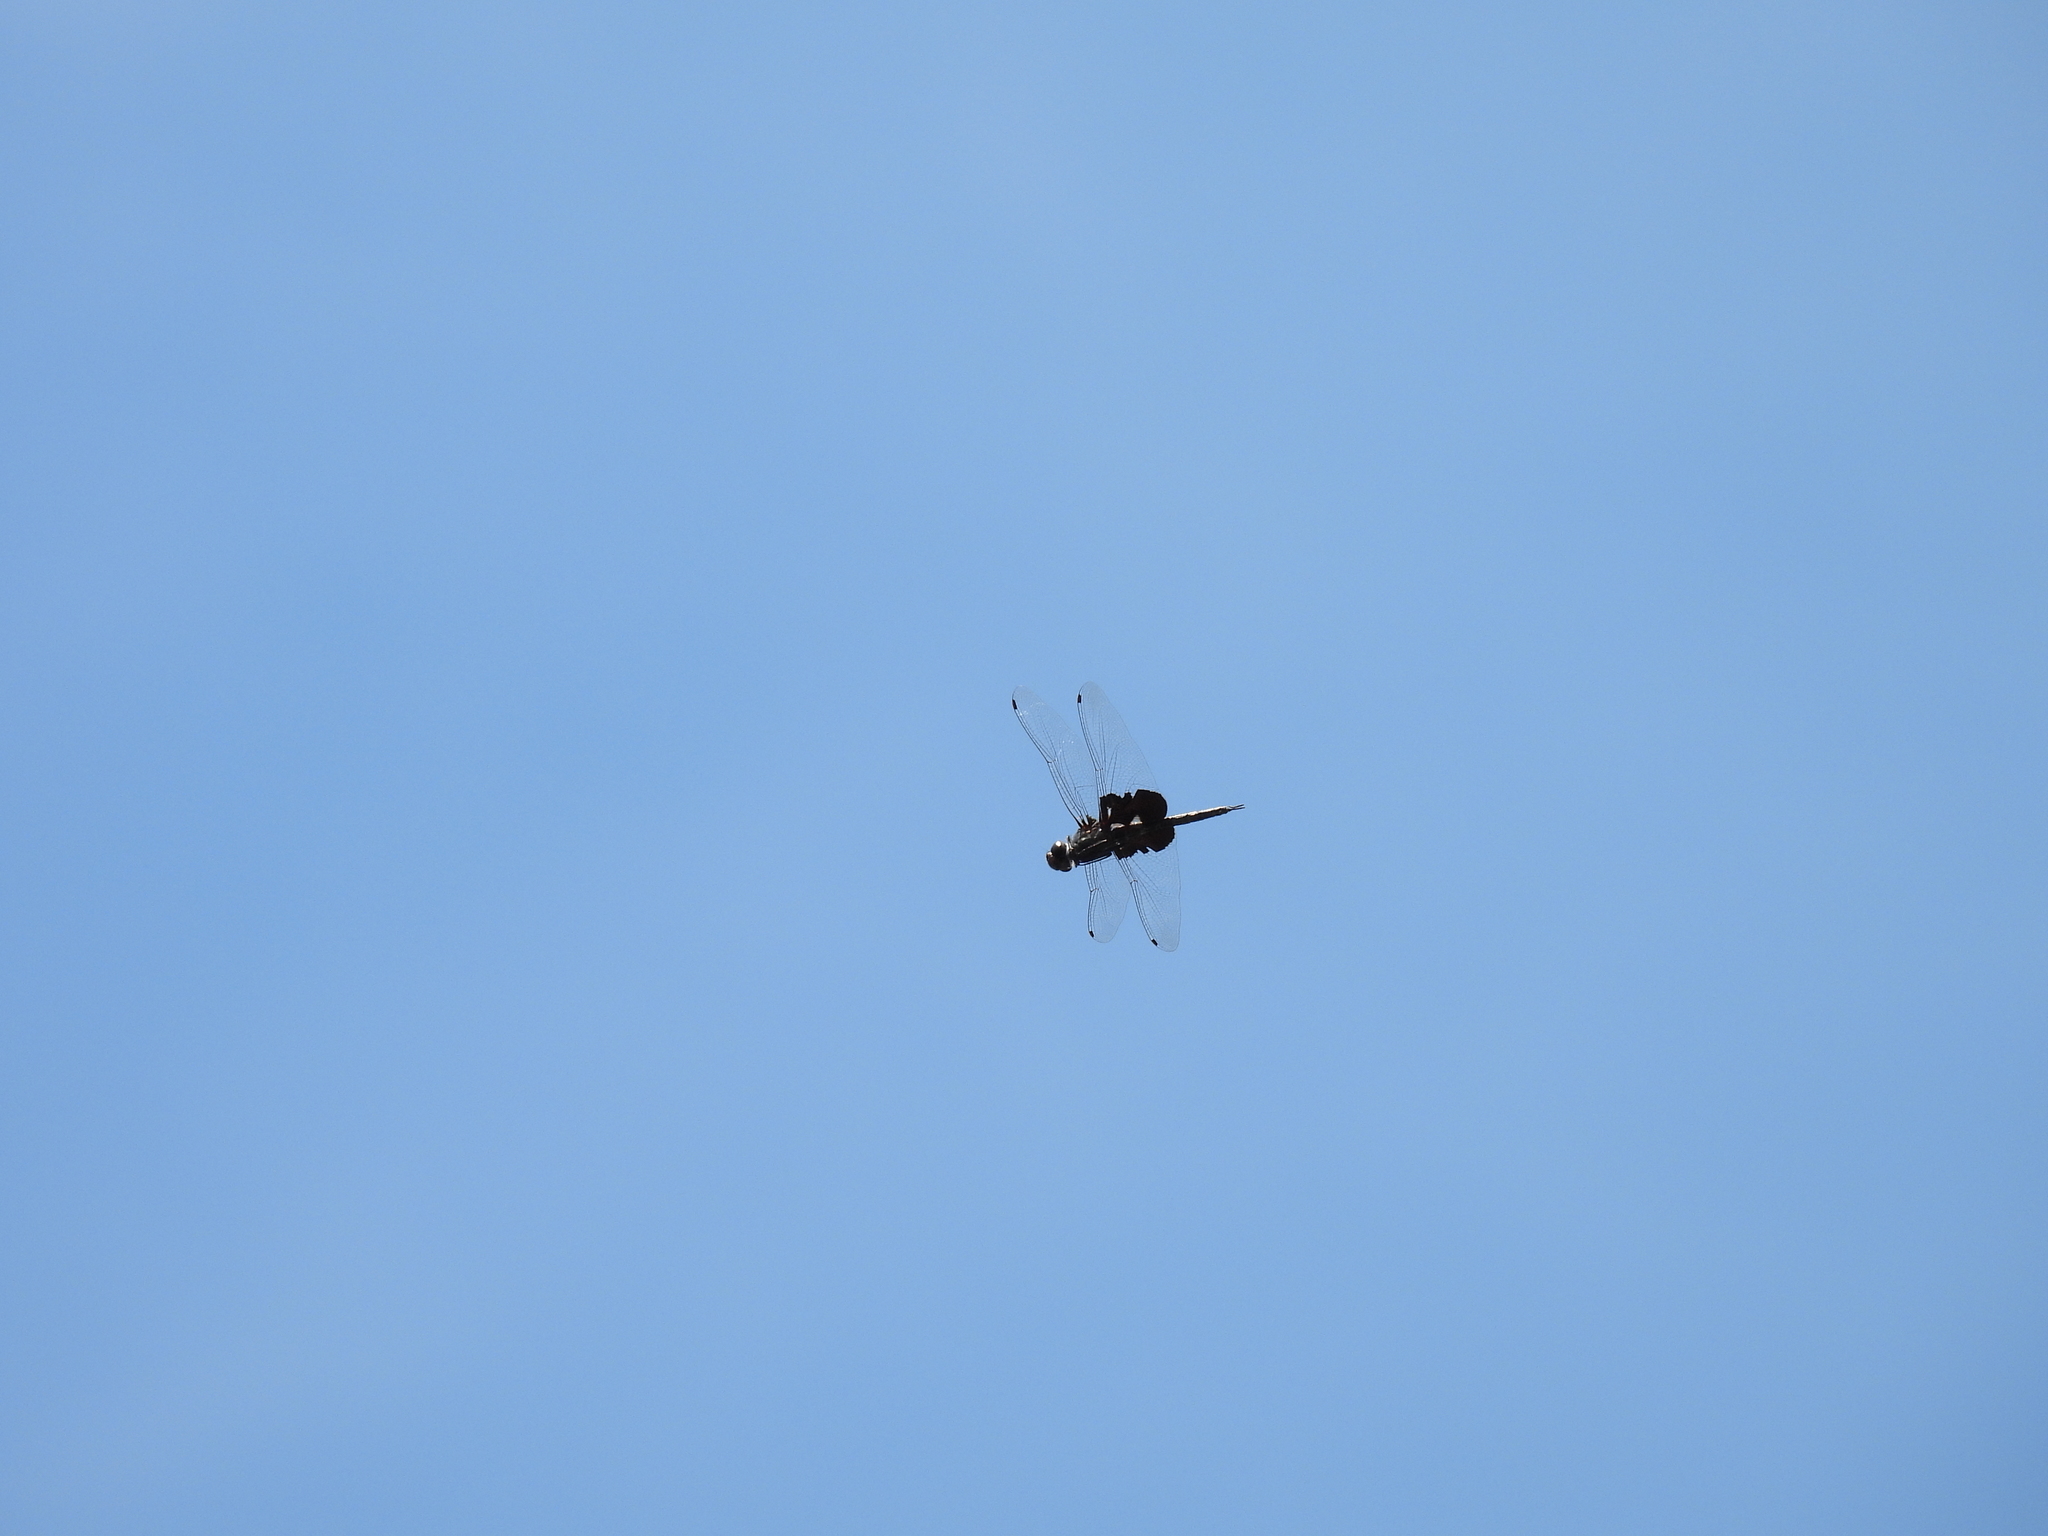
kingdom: Animalia
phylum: Arthropoda
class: Insecta
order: Odonata
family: Libellulidae
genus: Tramea
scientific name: Tramea lacerata
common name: Black saddlebags
